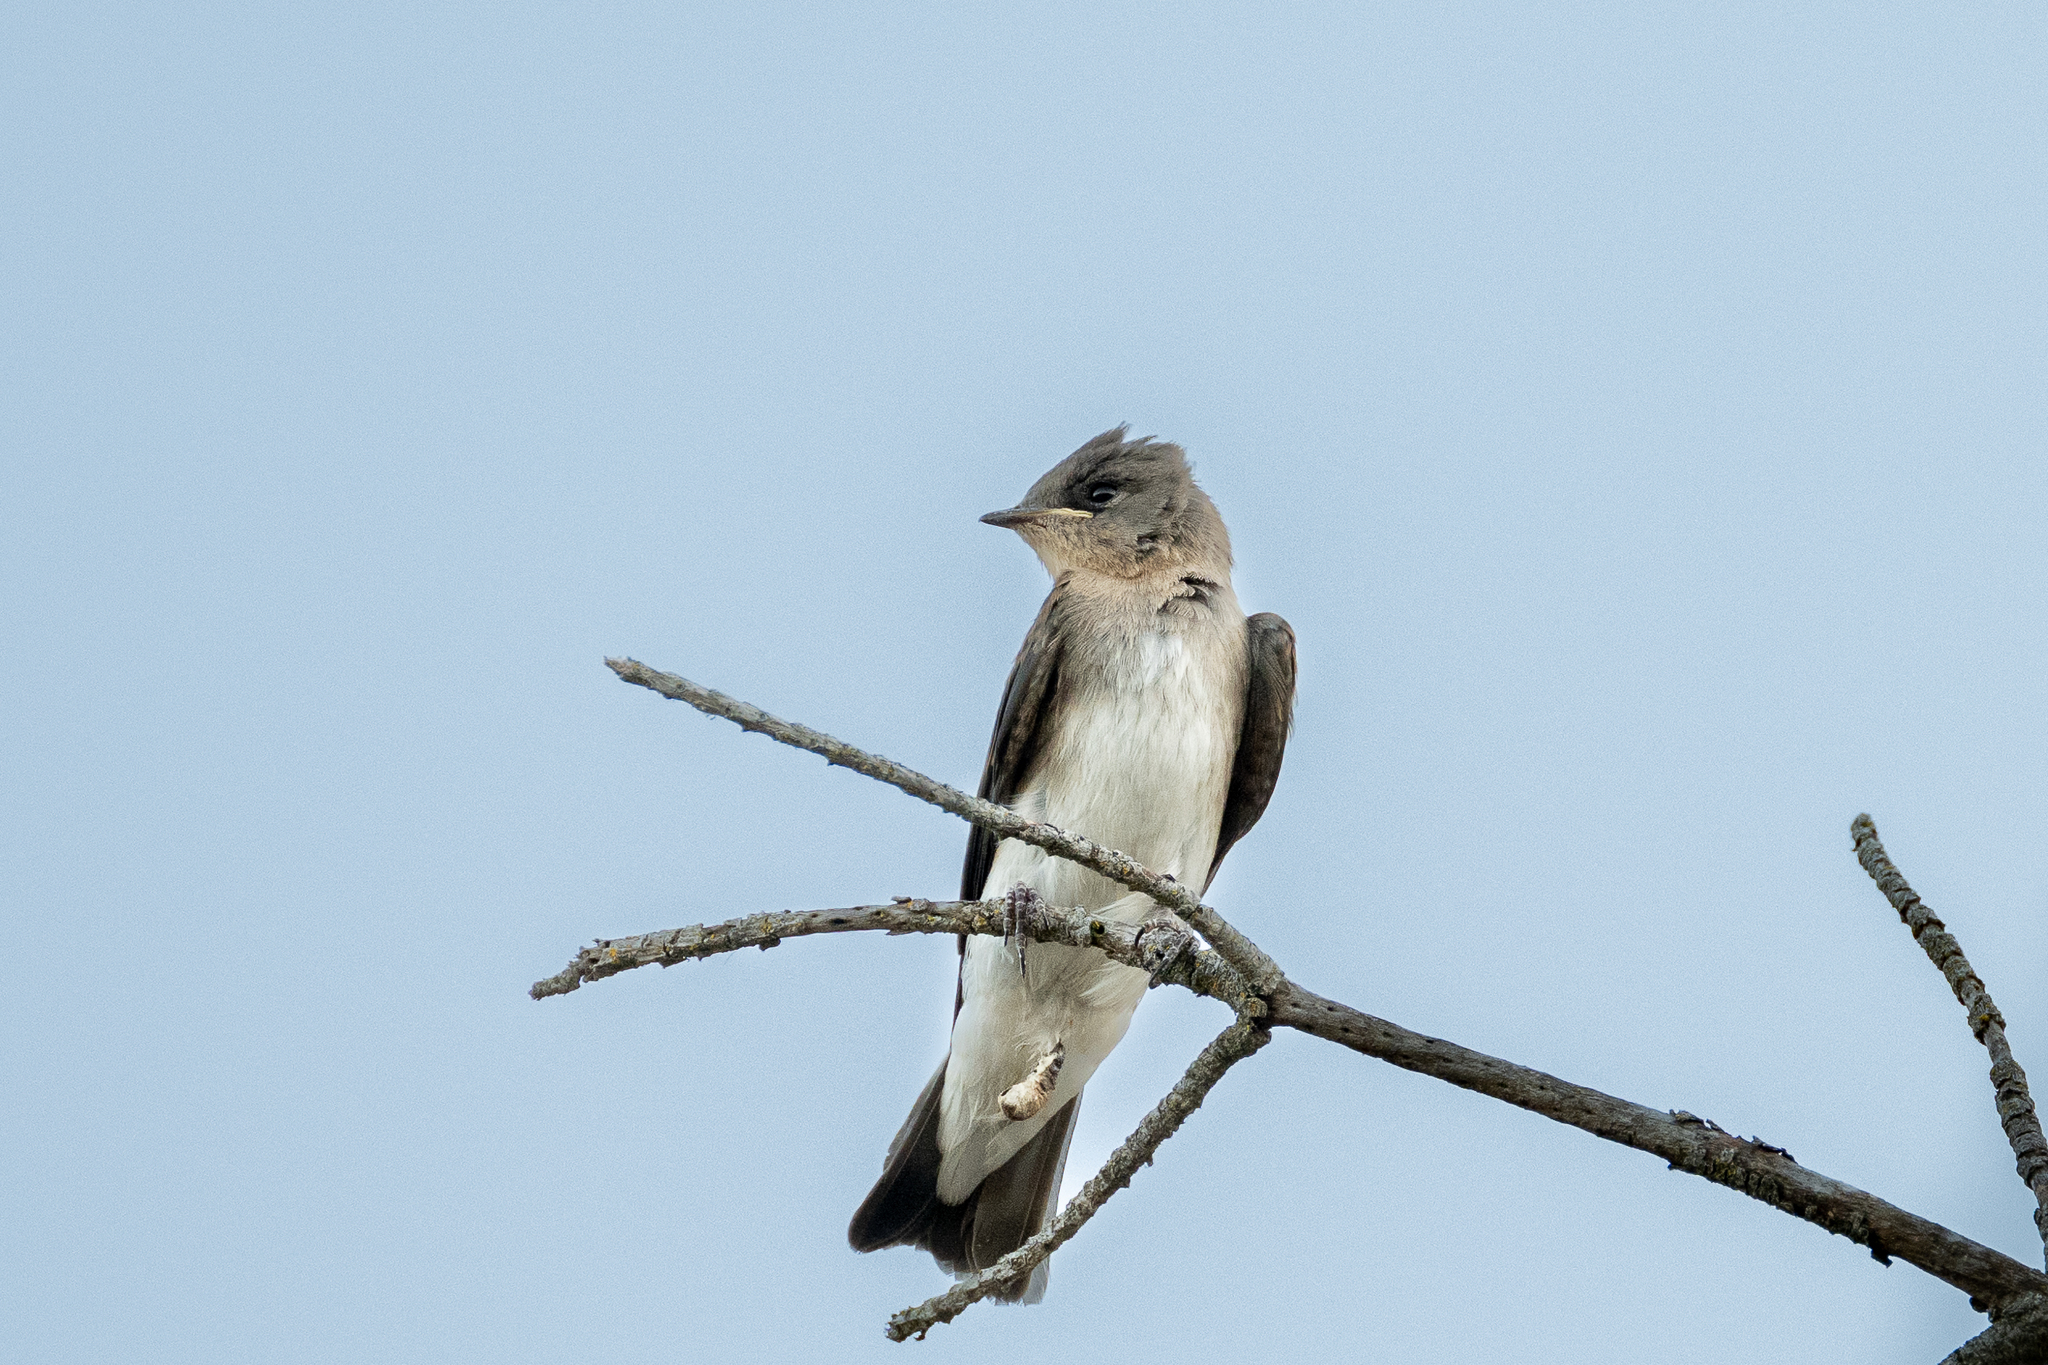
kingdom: Animalia
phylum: Chordata
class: Aves
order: Passeriformes
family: Hirundinidae
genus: Stelgidopteryx
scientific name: Stelgidopteryx serripennis
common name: Northern rough-winged swallow
